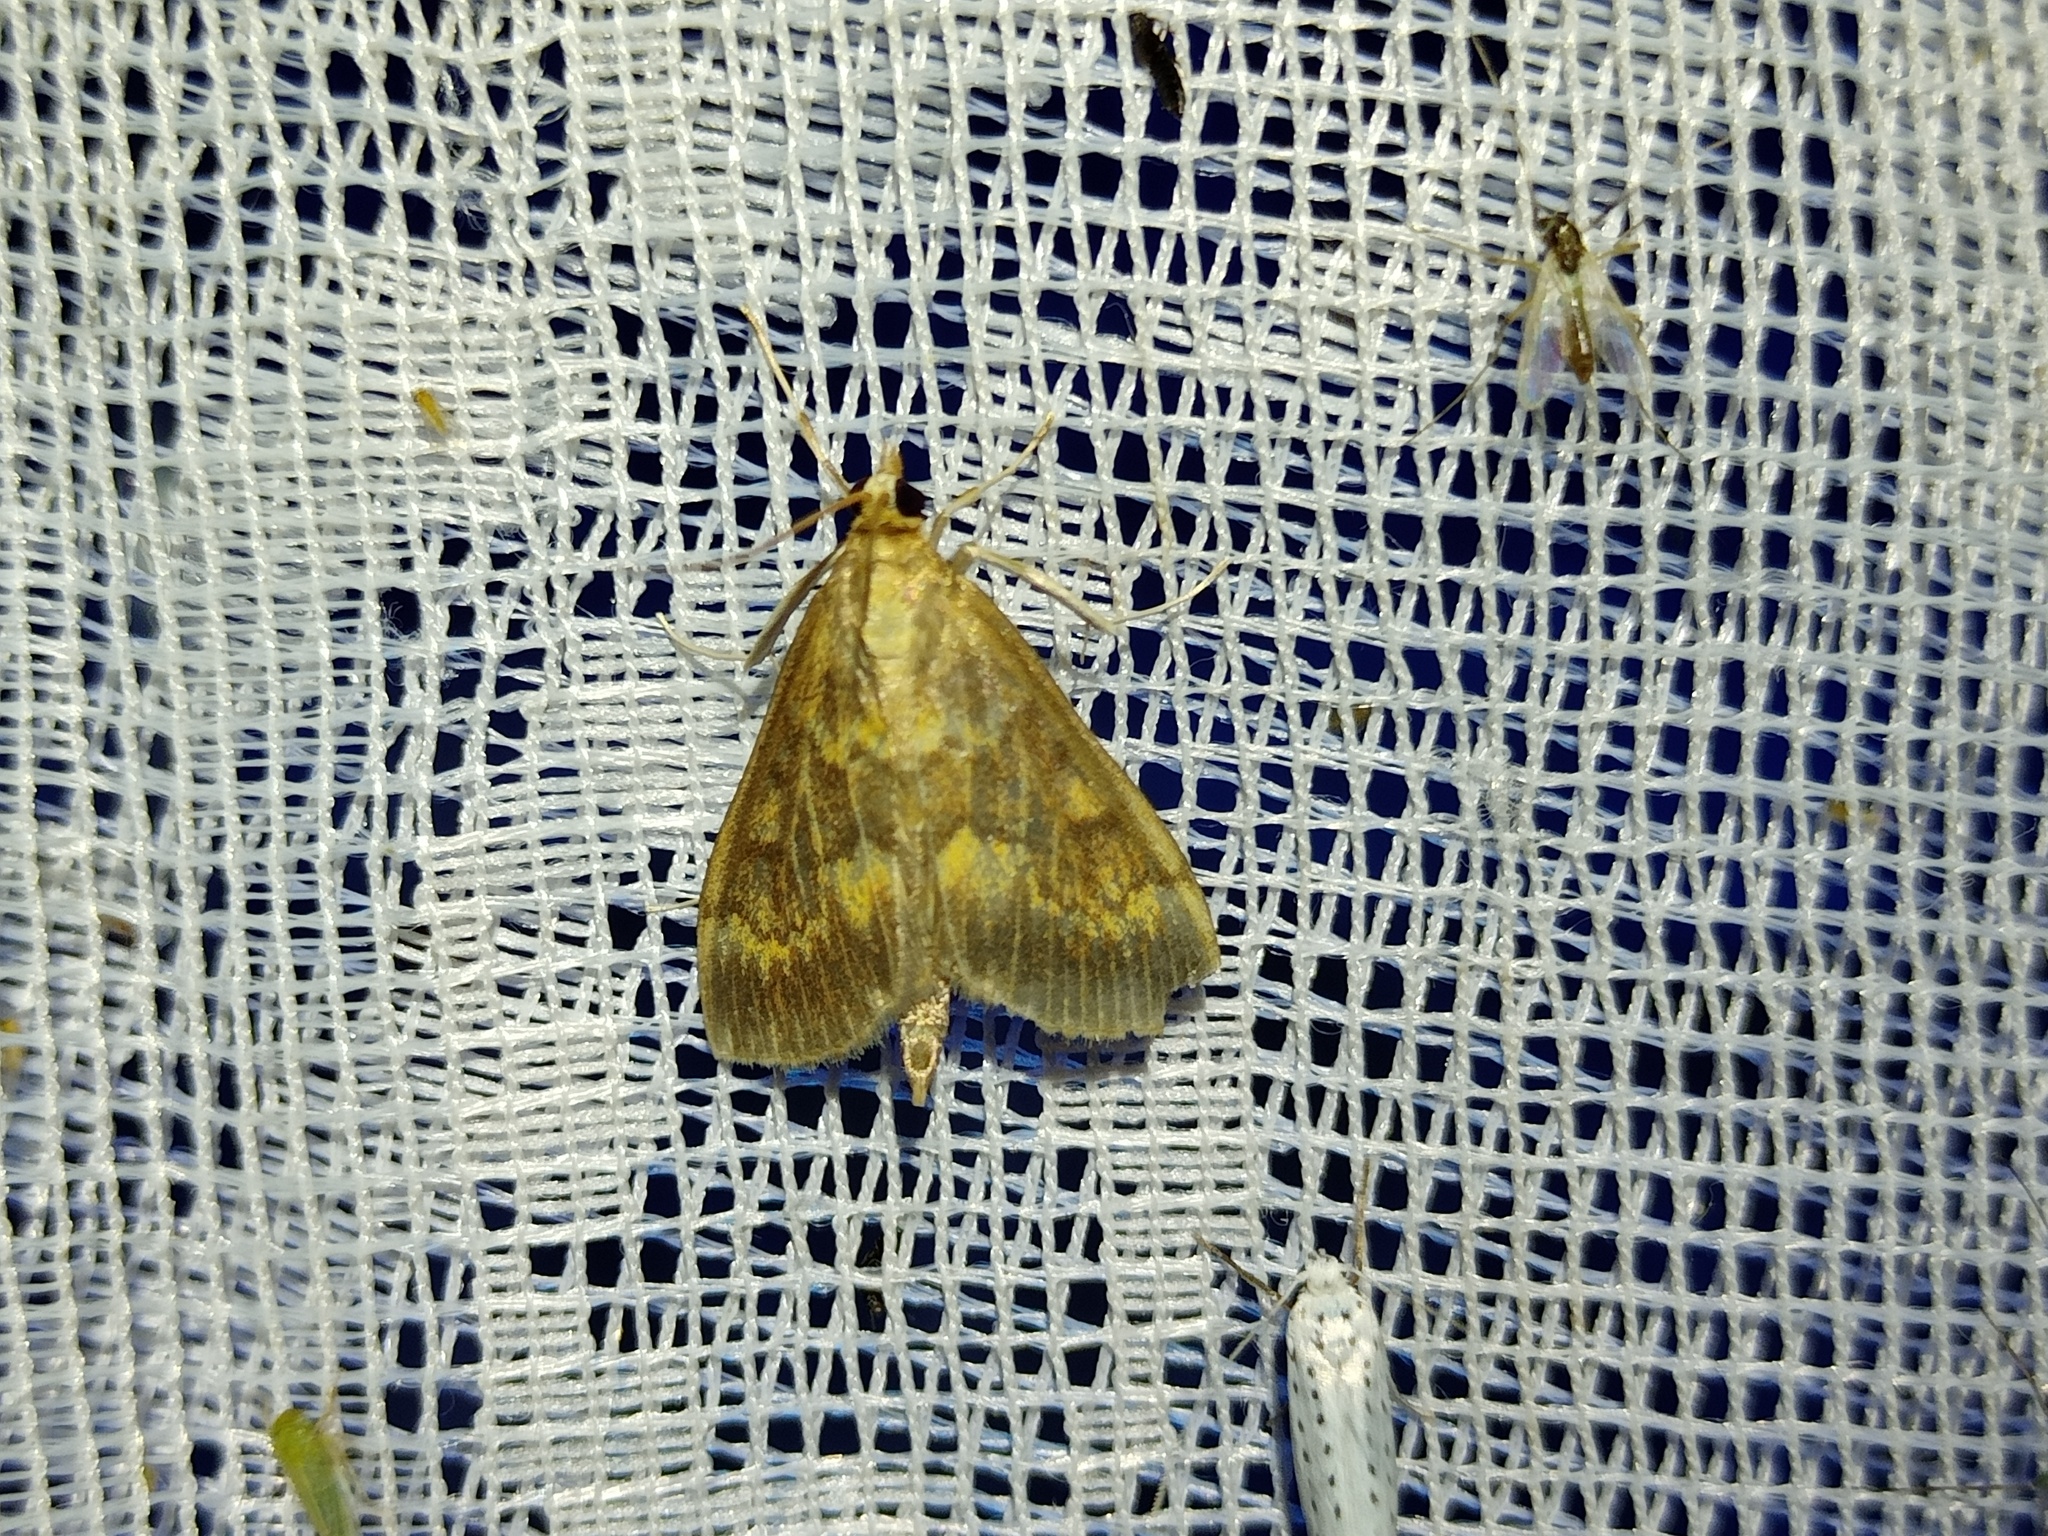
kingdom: Animalia
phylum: Arthropoda
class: Insecta
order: Lepidoptera
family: Crambidae
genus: Ostrinia
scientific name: Ostrinia nubilalis
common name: European corn borer
